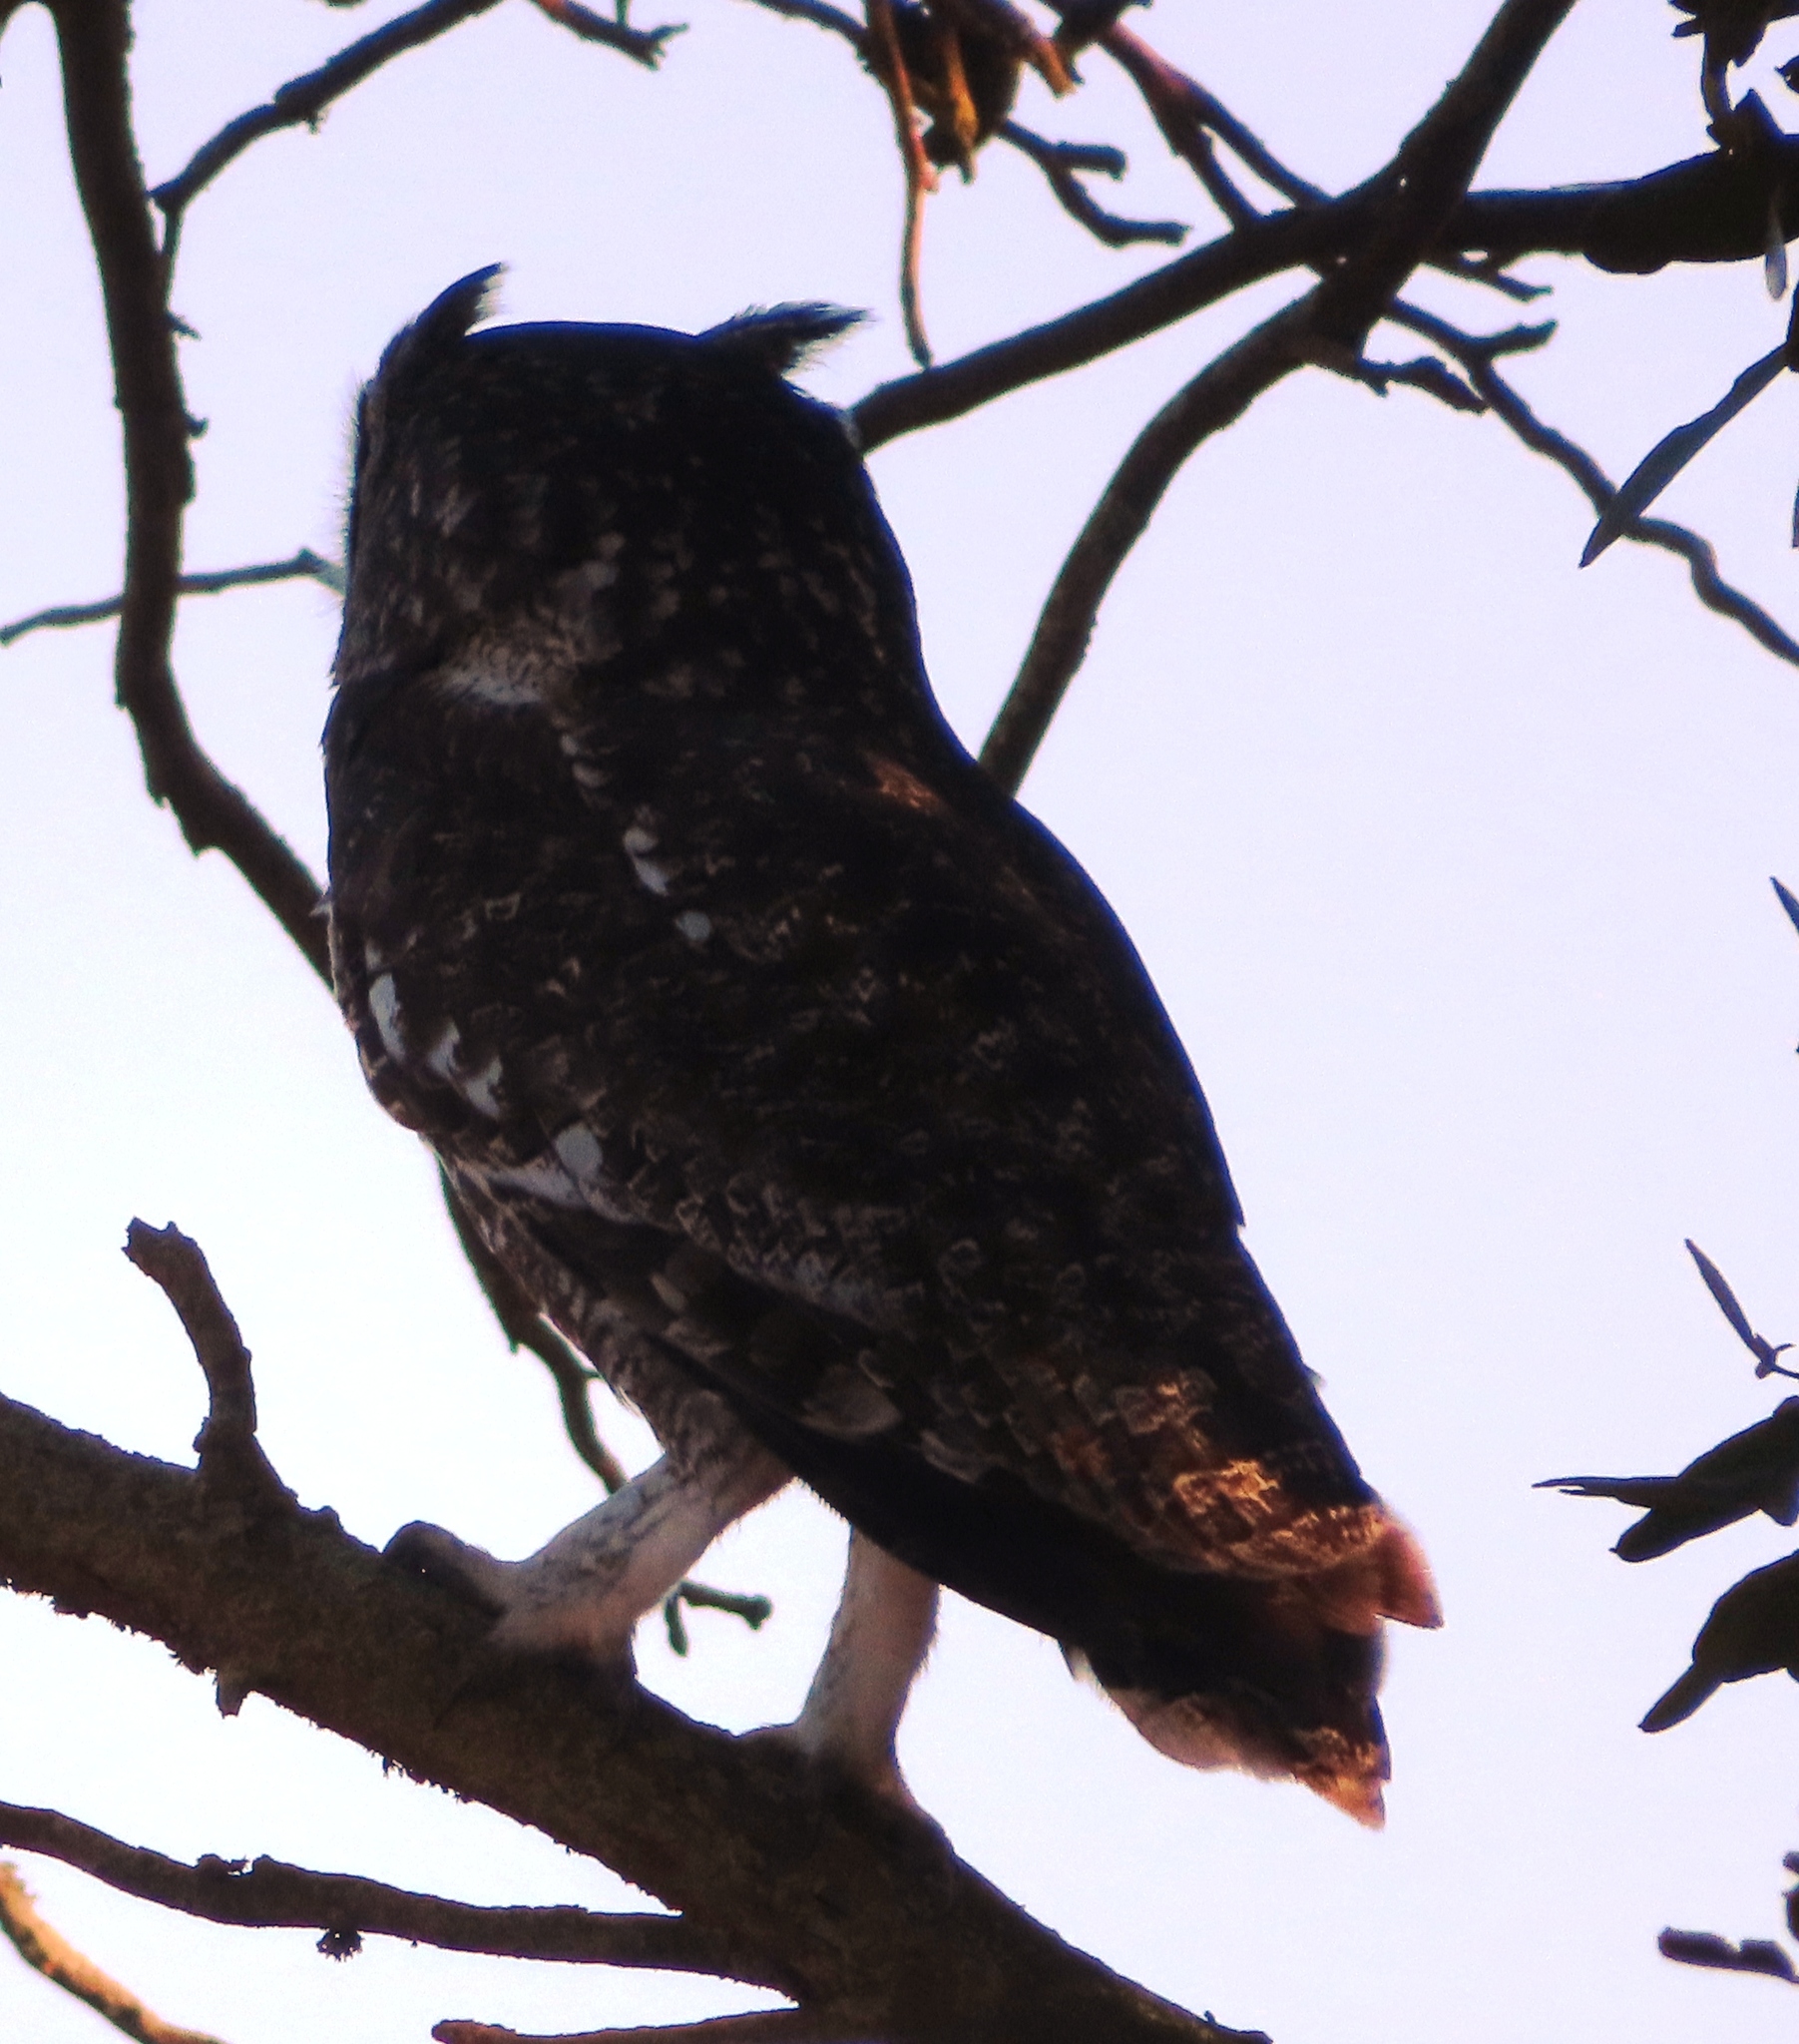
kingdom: Animalia
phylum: Chordata
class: Aves
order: Strigiformes
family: Strigidae
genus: Bubo
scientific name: Bubo africanus
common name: Spotted eagle-owl
